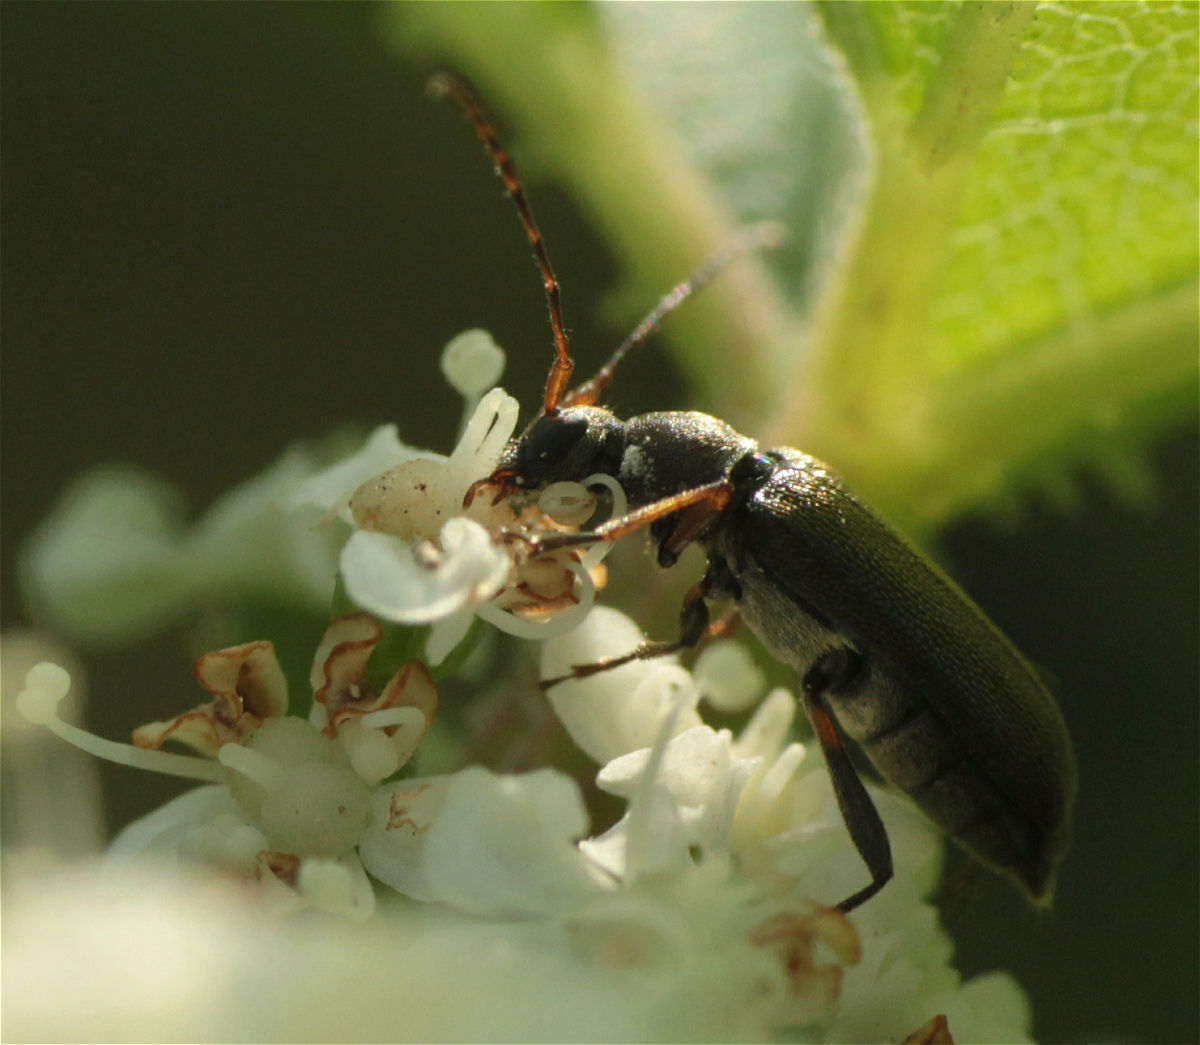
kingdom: Animalia
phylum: Arthropoda
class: Insecta
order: Coleoptera
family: Cerambycidae
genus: Grammoptera
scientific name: Grammoptera ruficornis
